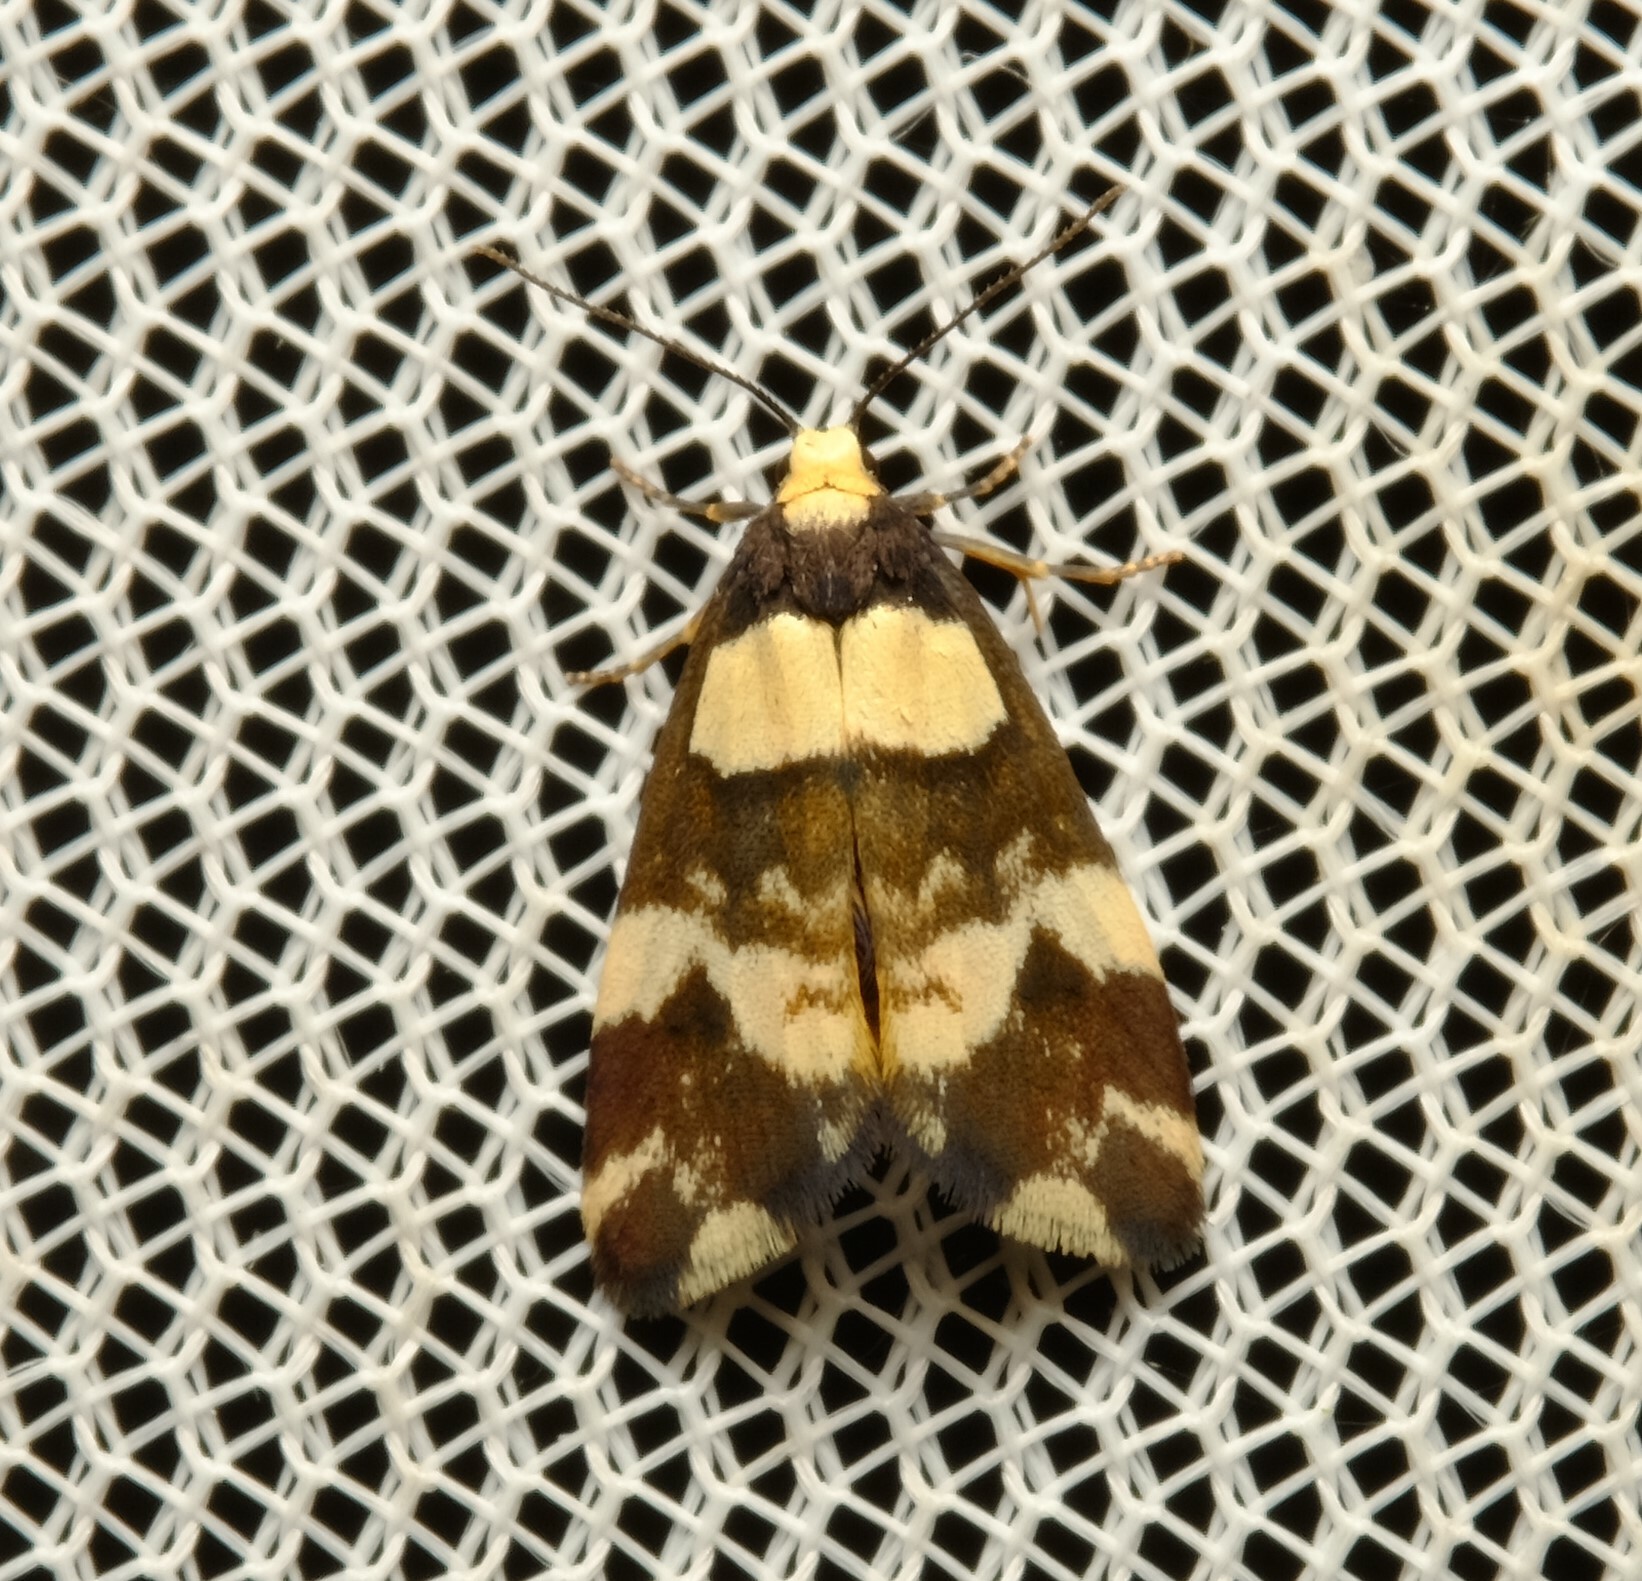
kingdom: Animalia
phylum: Arthropoda
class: Insecta
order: Lepidoptera
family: Erebidae
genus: Thallarcha
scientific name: Thallarcha phalarota
